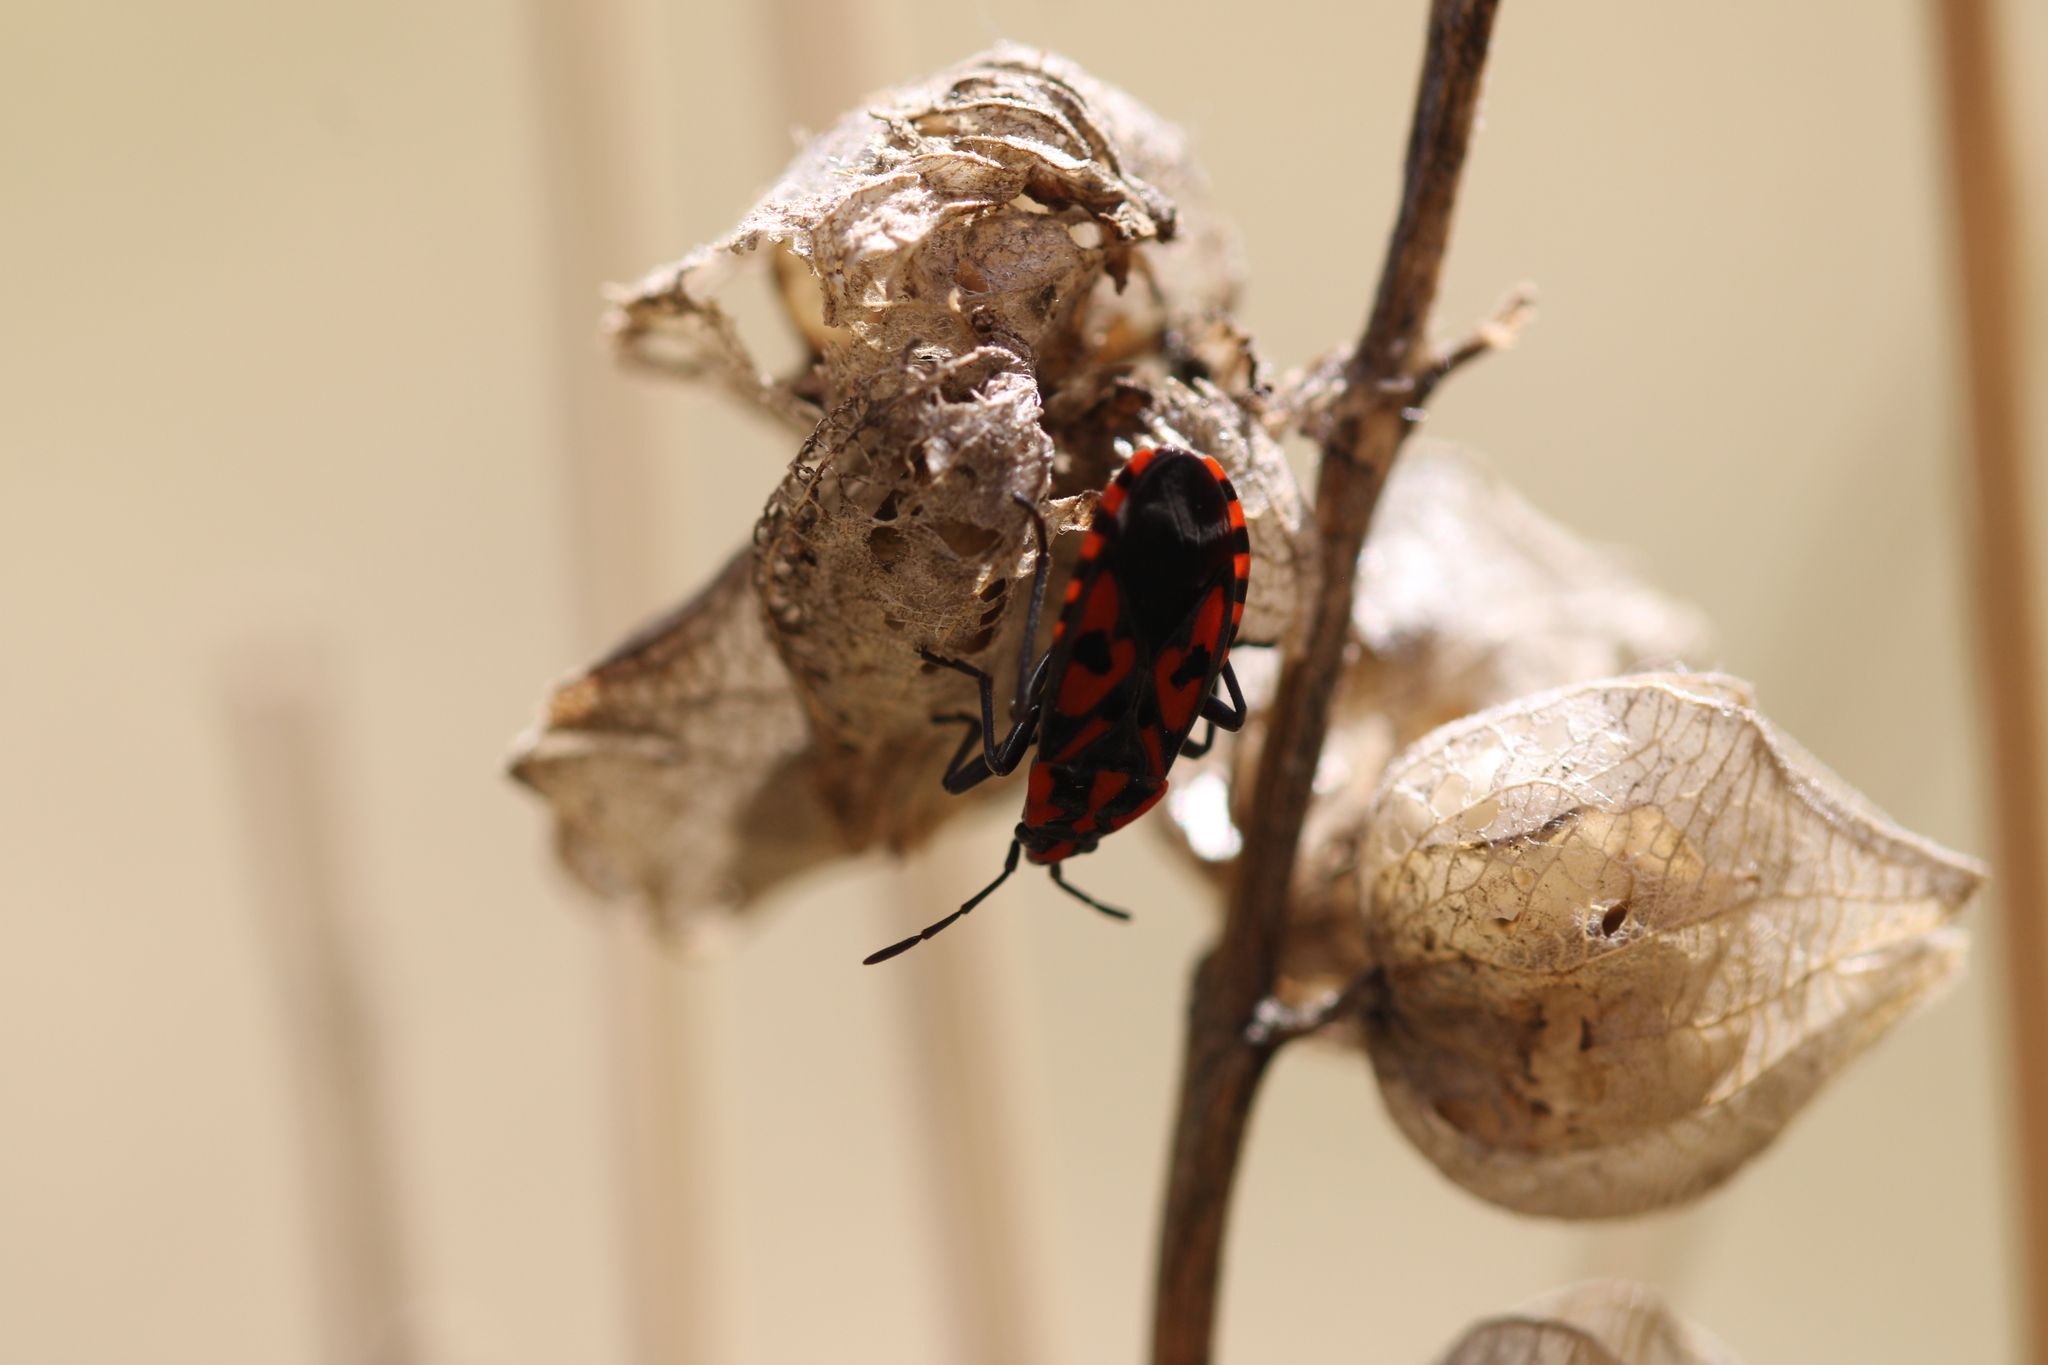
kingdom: Animalia
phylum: Arthropoda
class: Insecta
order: Hemiptera
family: Lygaeidae
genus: Spilostethus
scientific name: Spilostethus saxatilis
